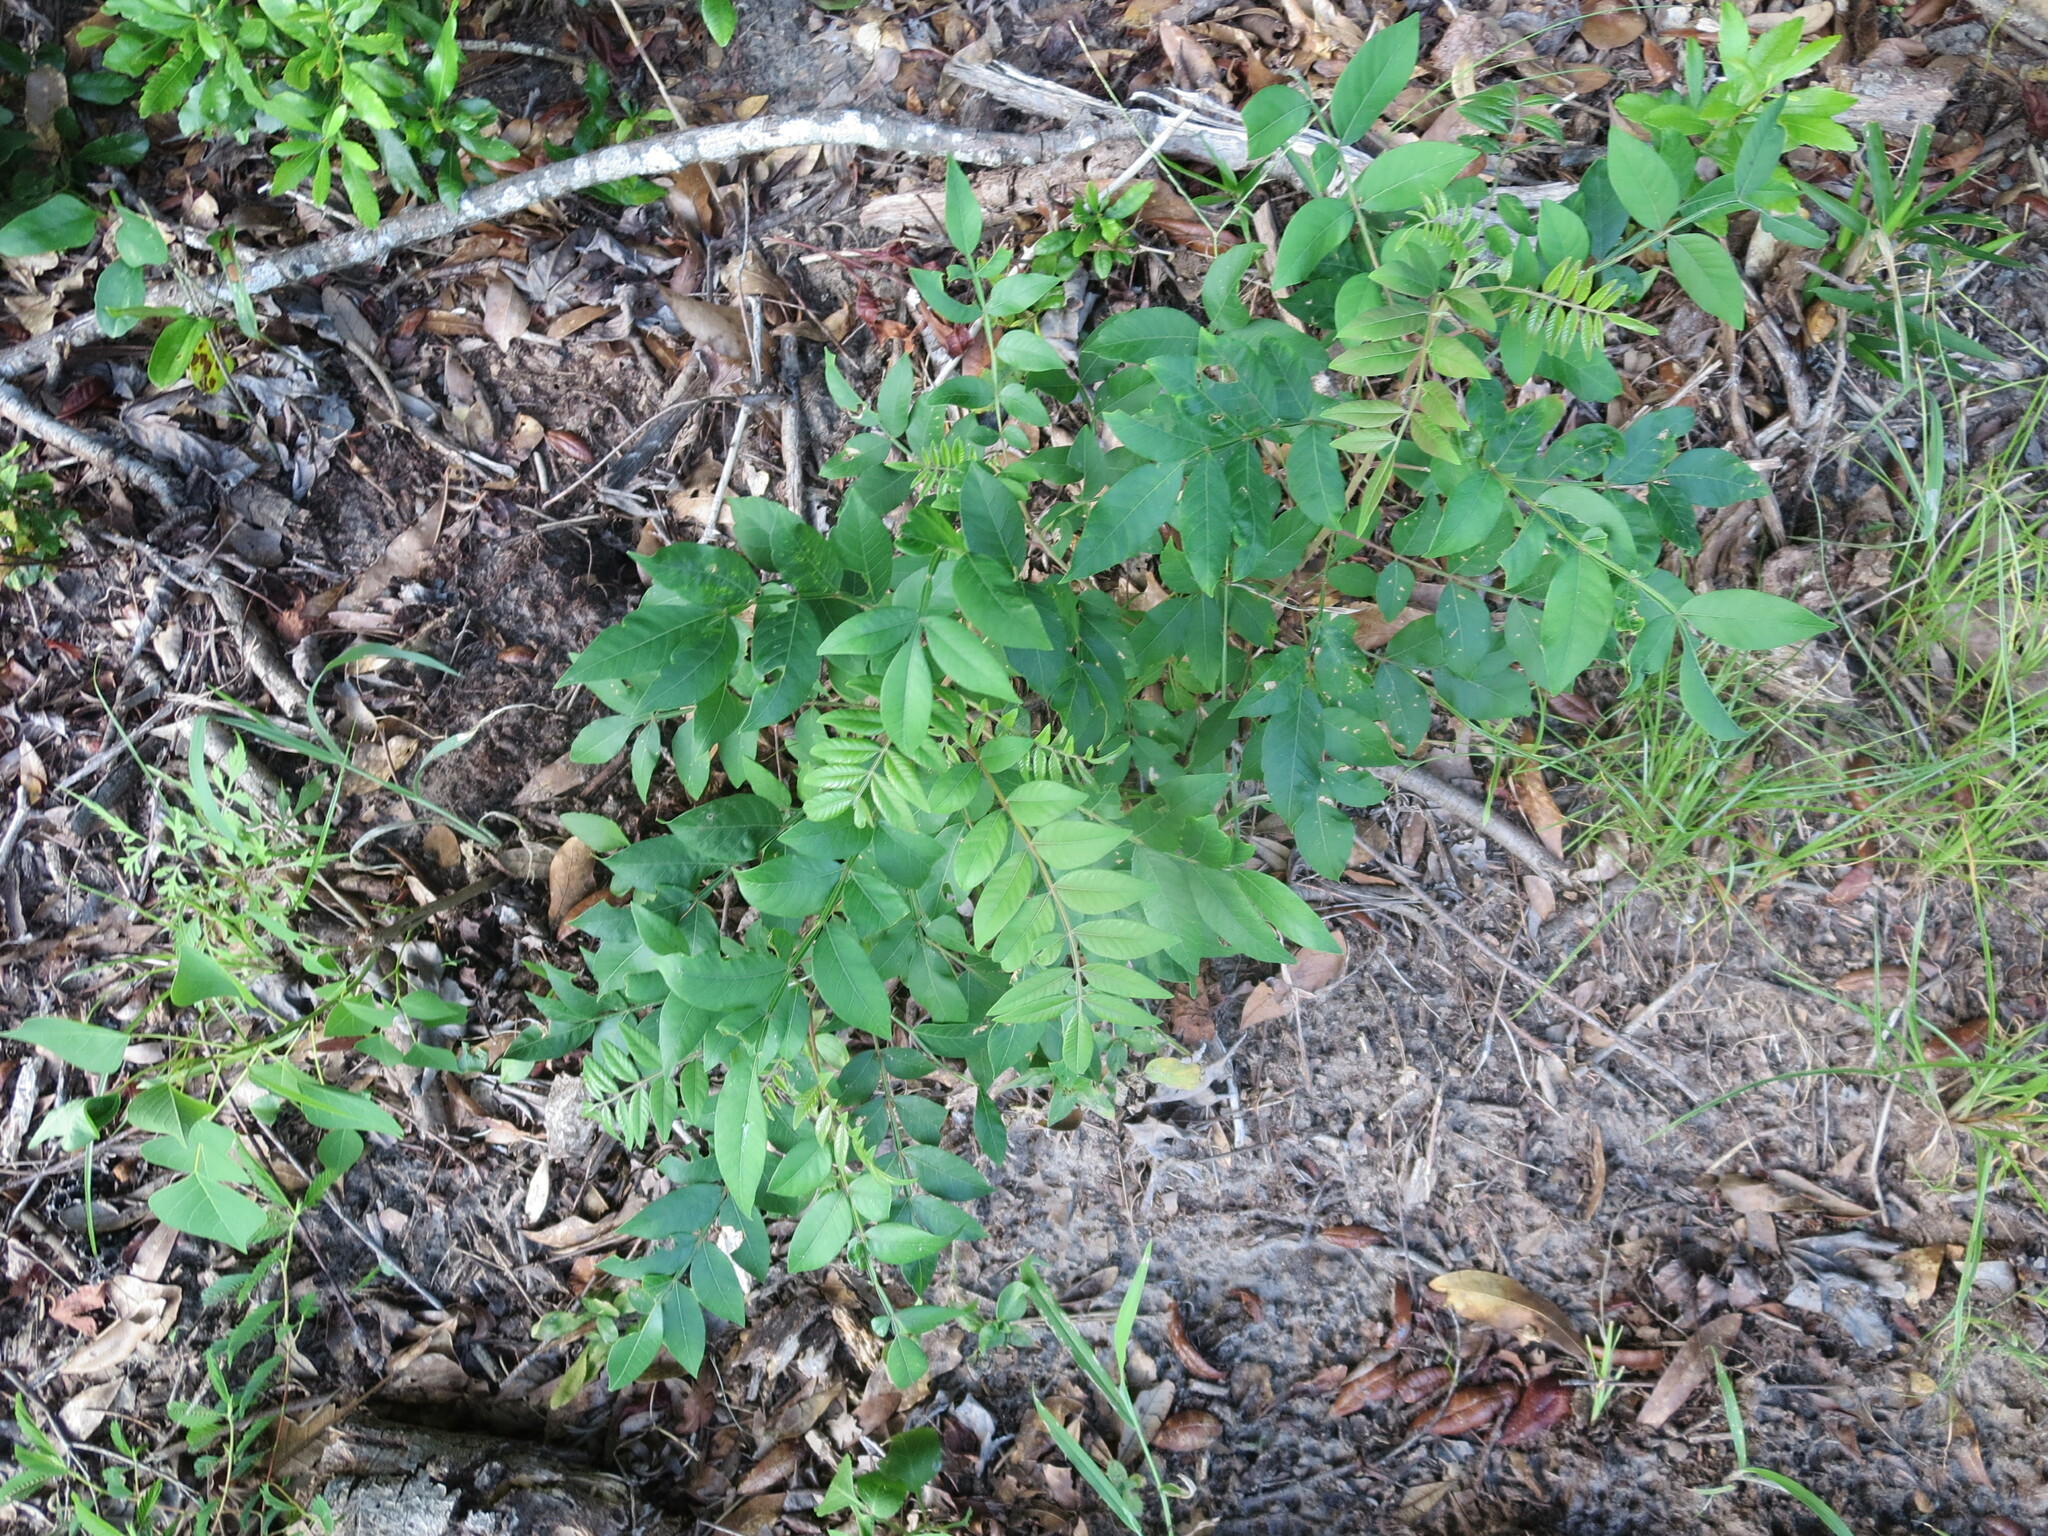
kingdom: Plantae
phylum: Tracheophyta
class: Magnoliopsida
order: Sapindales
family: Anacardiaceae
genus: Rhus
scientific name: Rhus copallina
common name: Shining sumac
